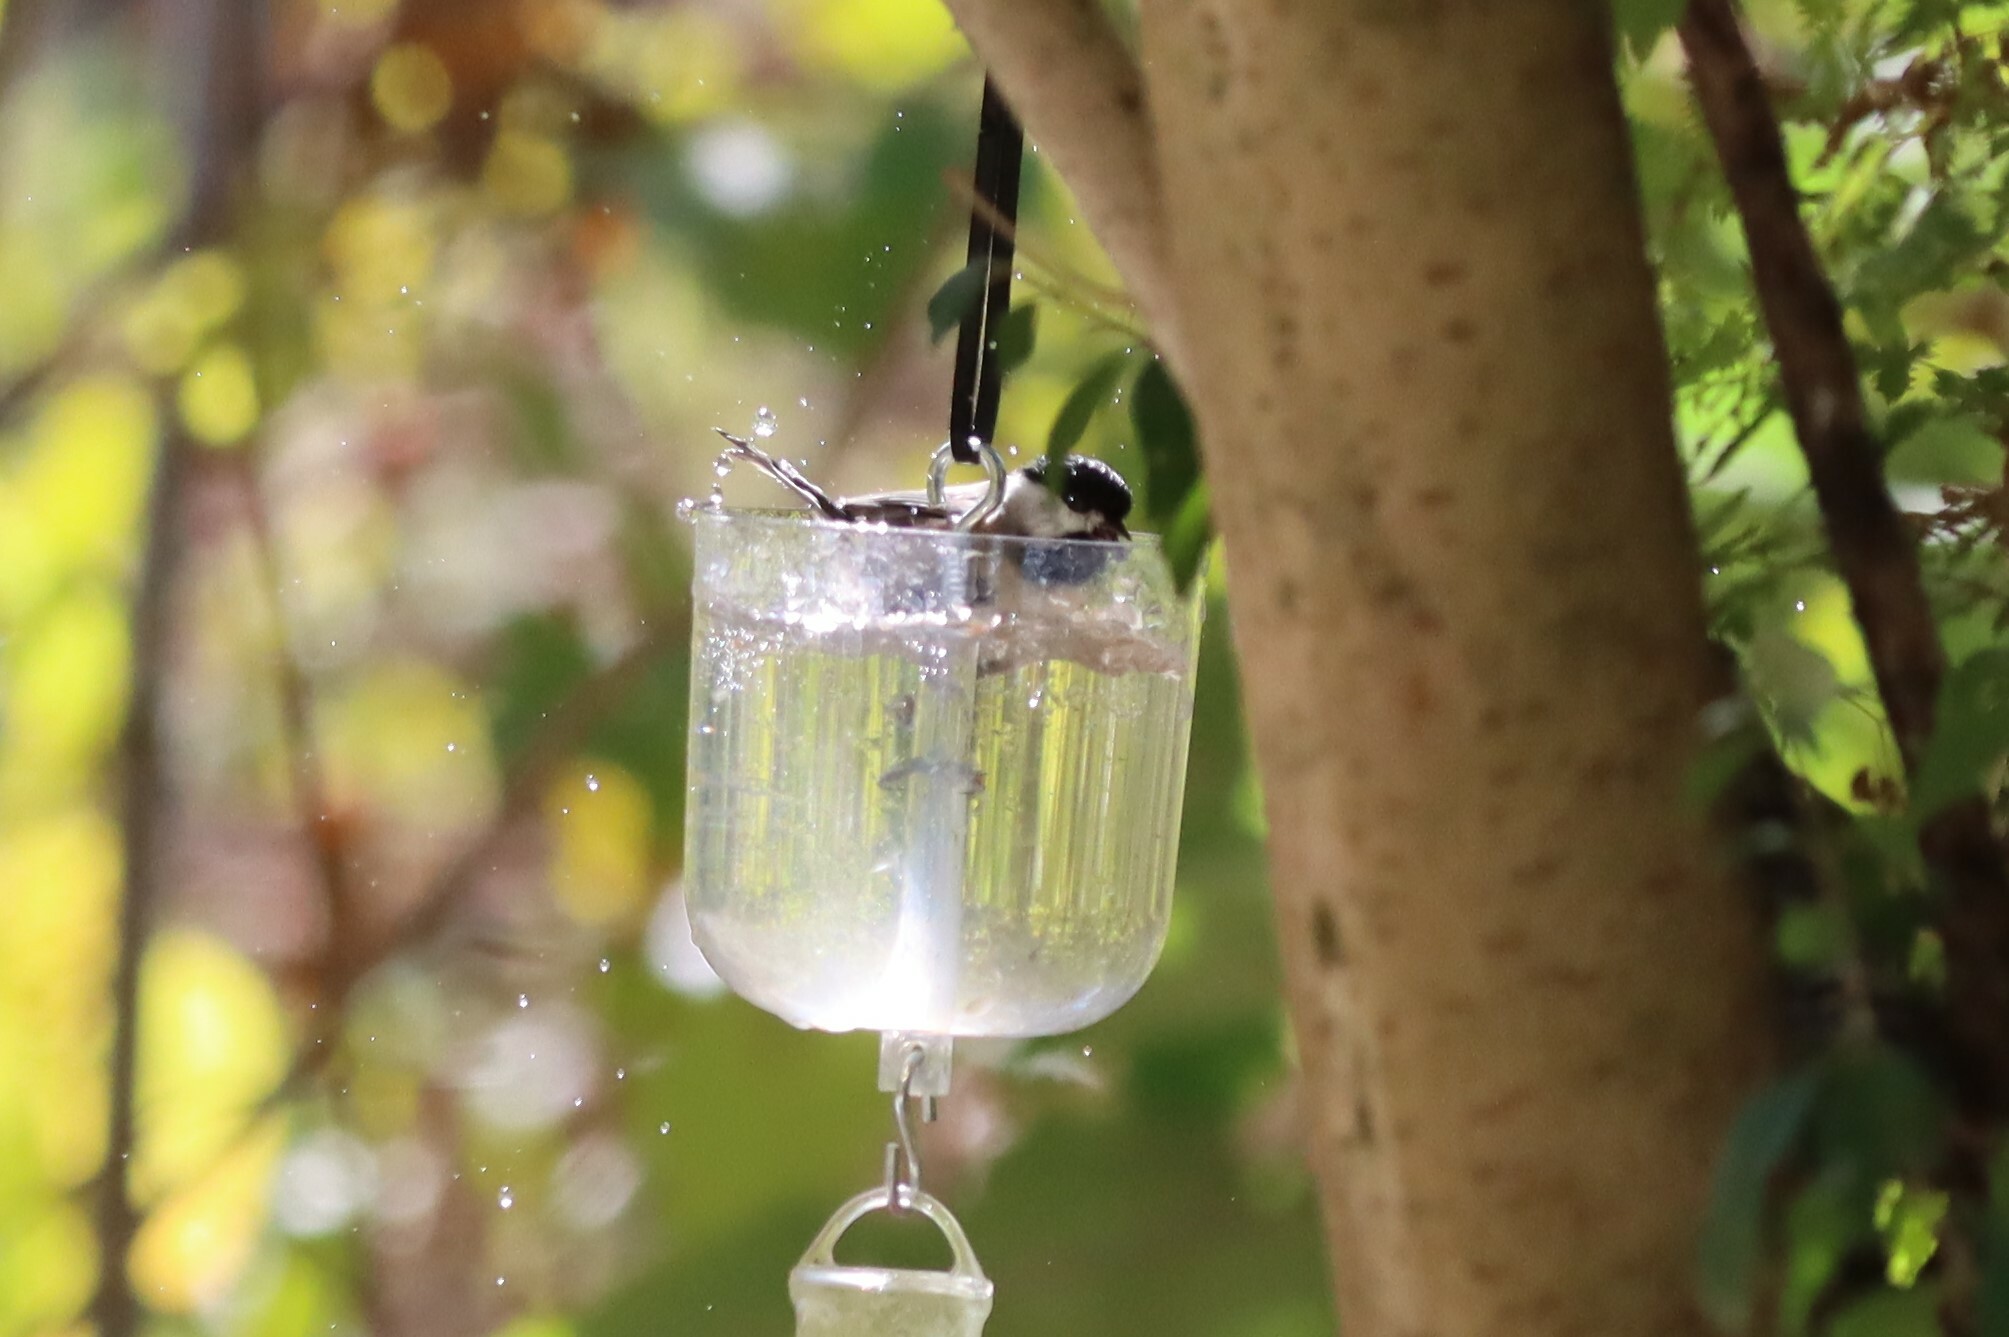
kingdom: Animalia
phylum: Chordata
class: Aves
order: Passeriformes
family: Paridae
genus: Poecile
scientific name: Poecile carolinensis
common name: Carolina chickadee
